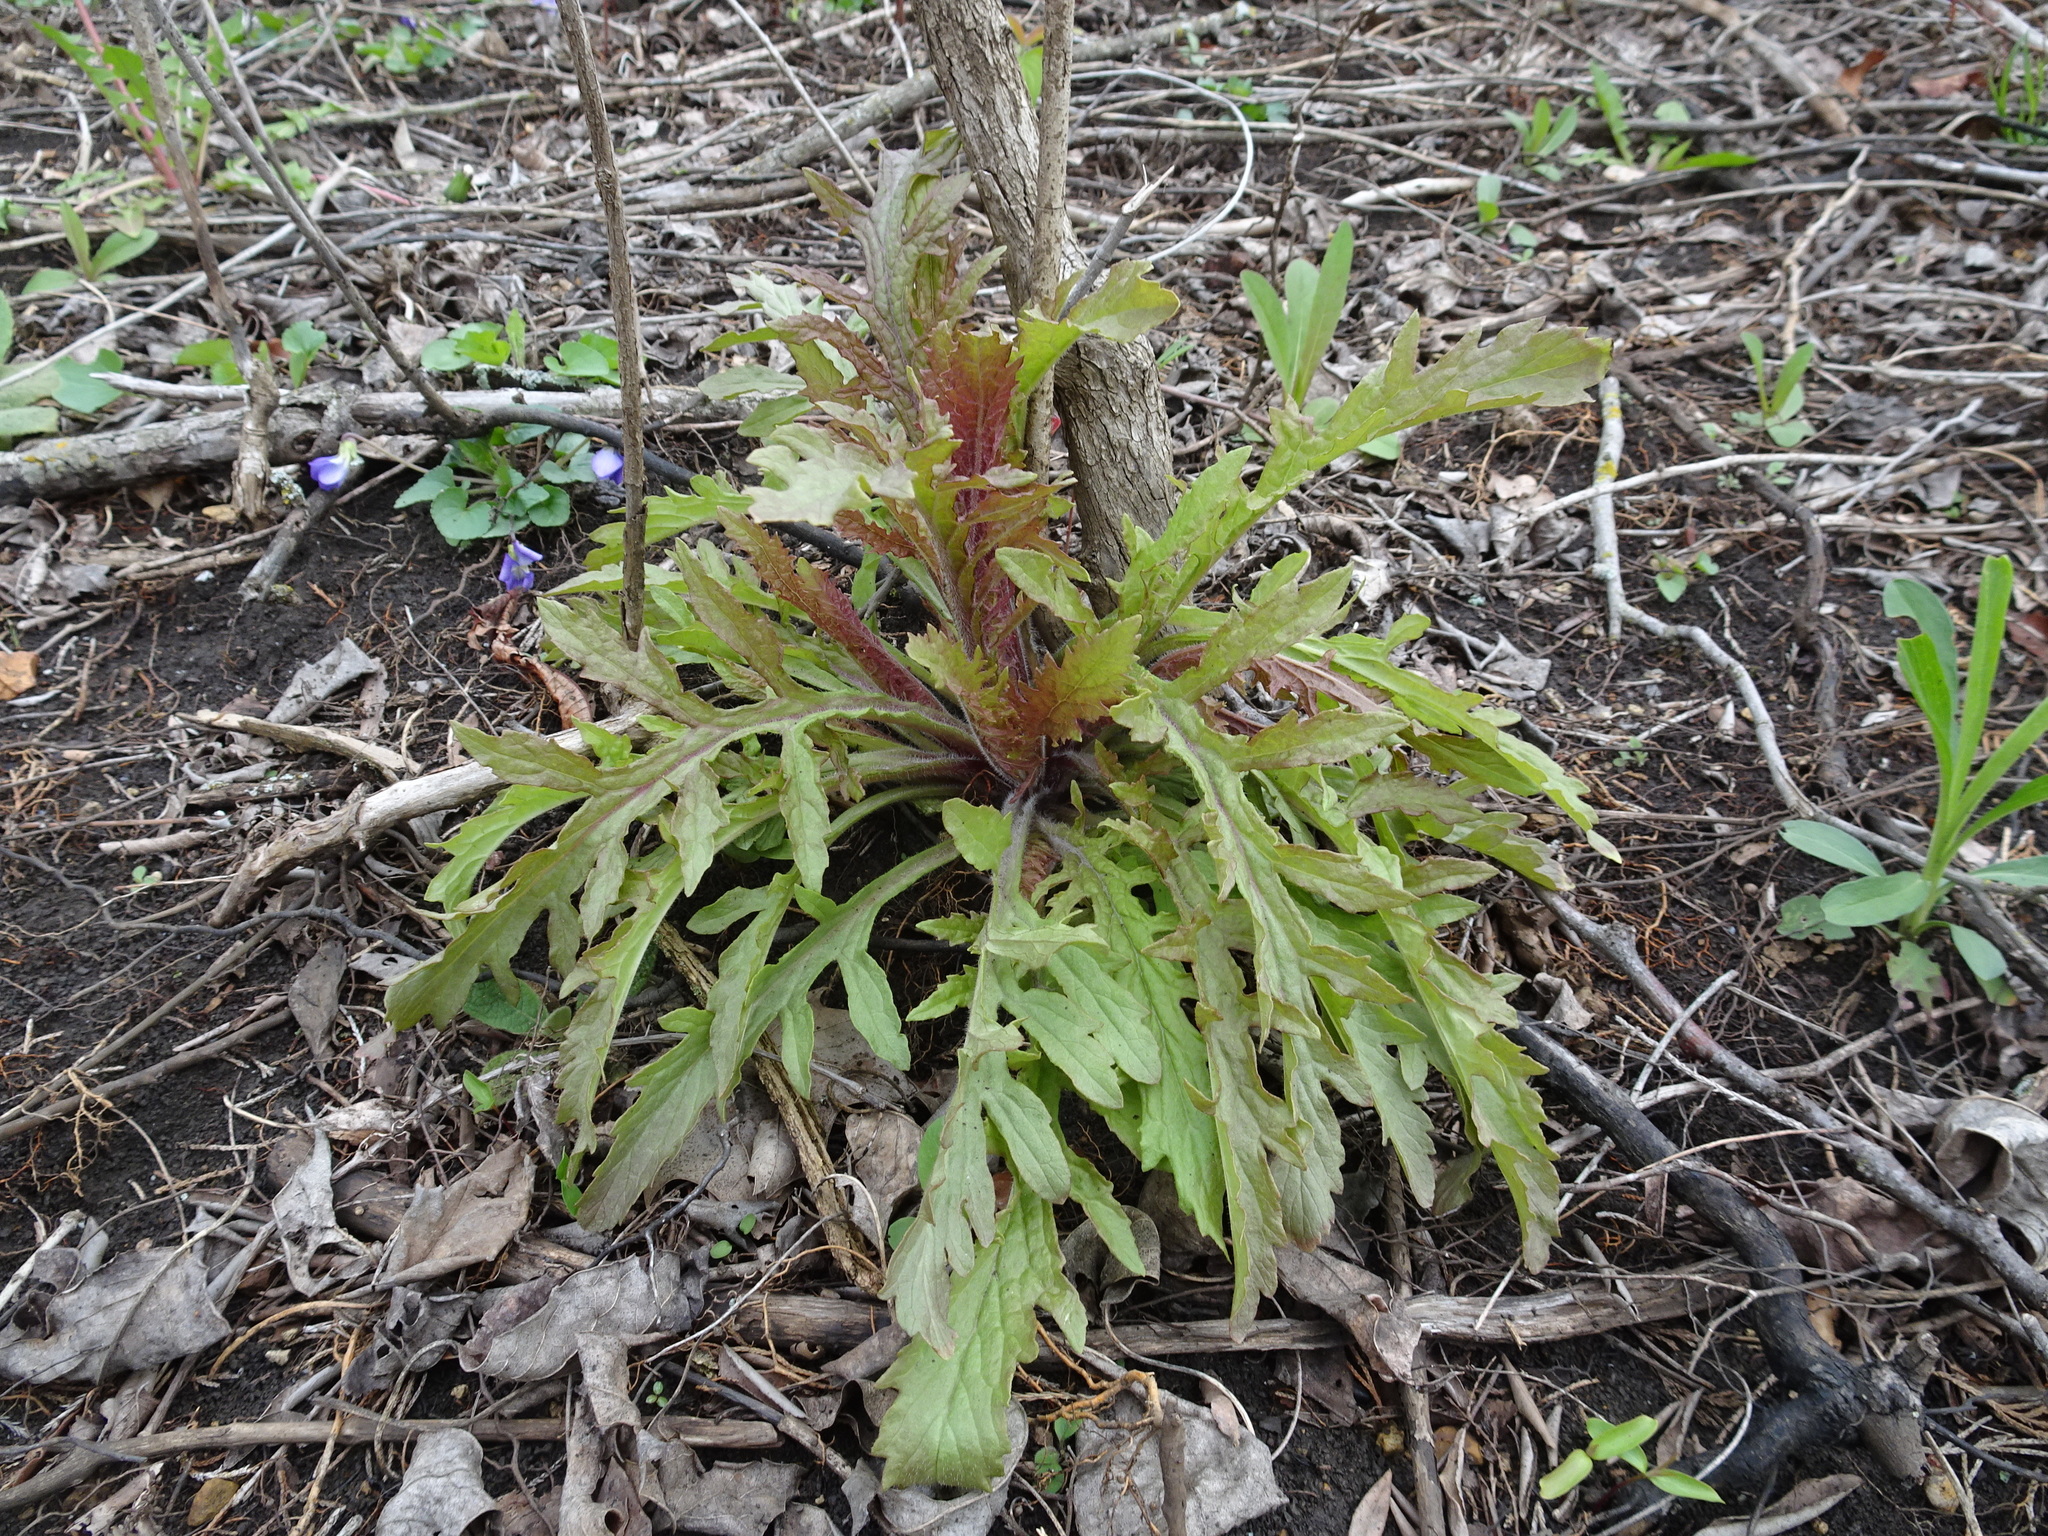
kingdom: Plantae
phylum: Tracheophyta
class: Magnoliopsida
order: Lamiales
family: Orobanchaceae
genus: Dasistoma
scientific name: Dasistoma macrophyllum
